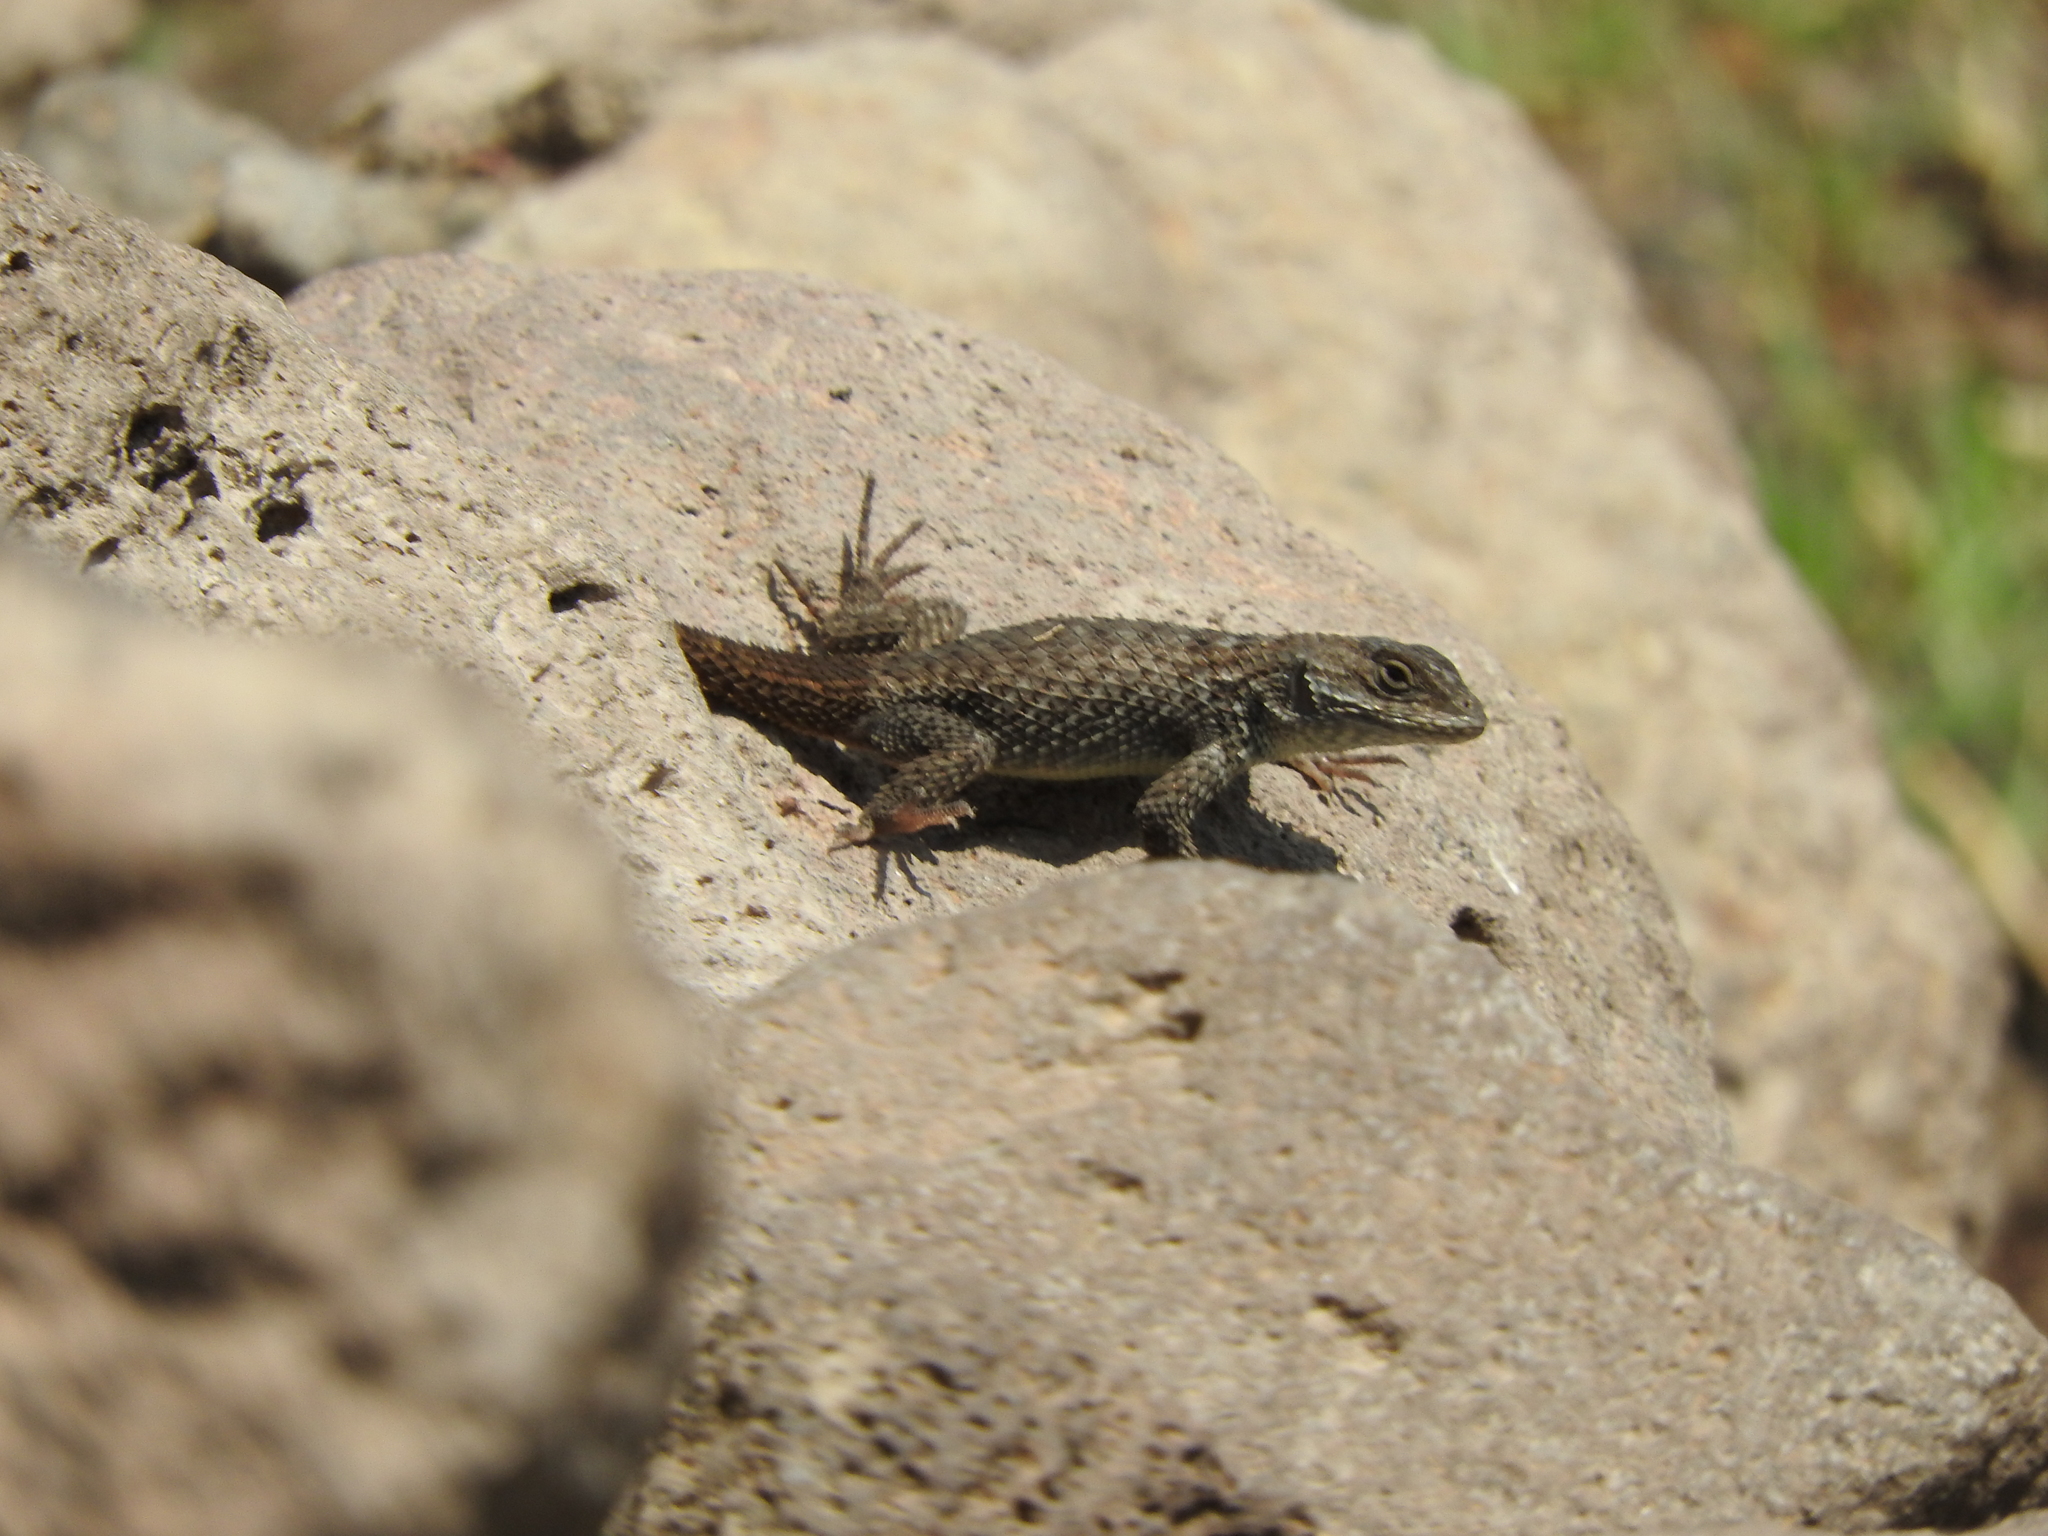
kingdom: Animalia
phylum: Chordata
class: Squamata
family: Phrynosomatidae
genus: Sceloporus
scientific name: Sceloporus torquatus
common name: Central plateau torquate lizard [melanogaster]
